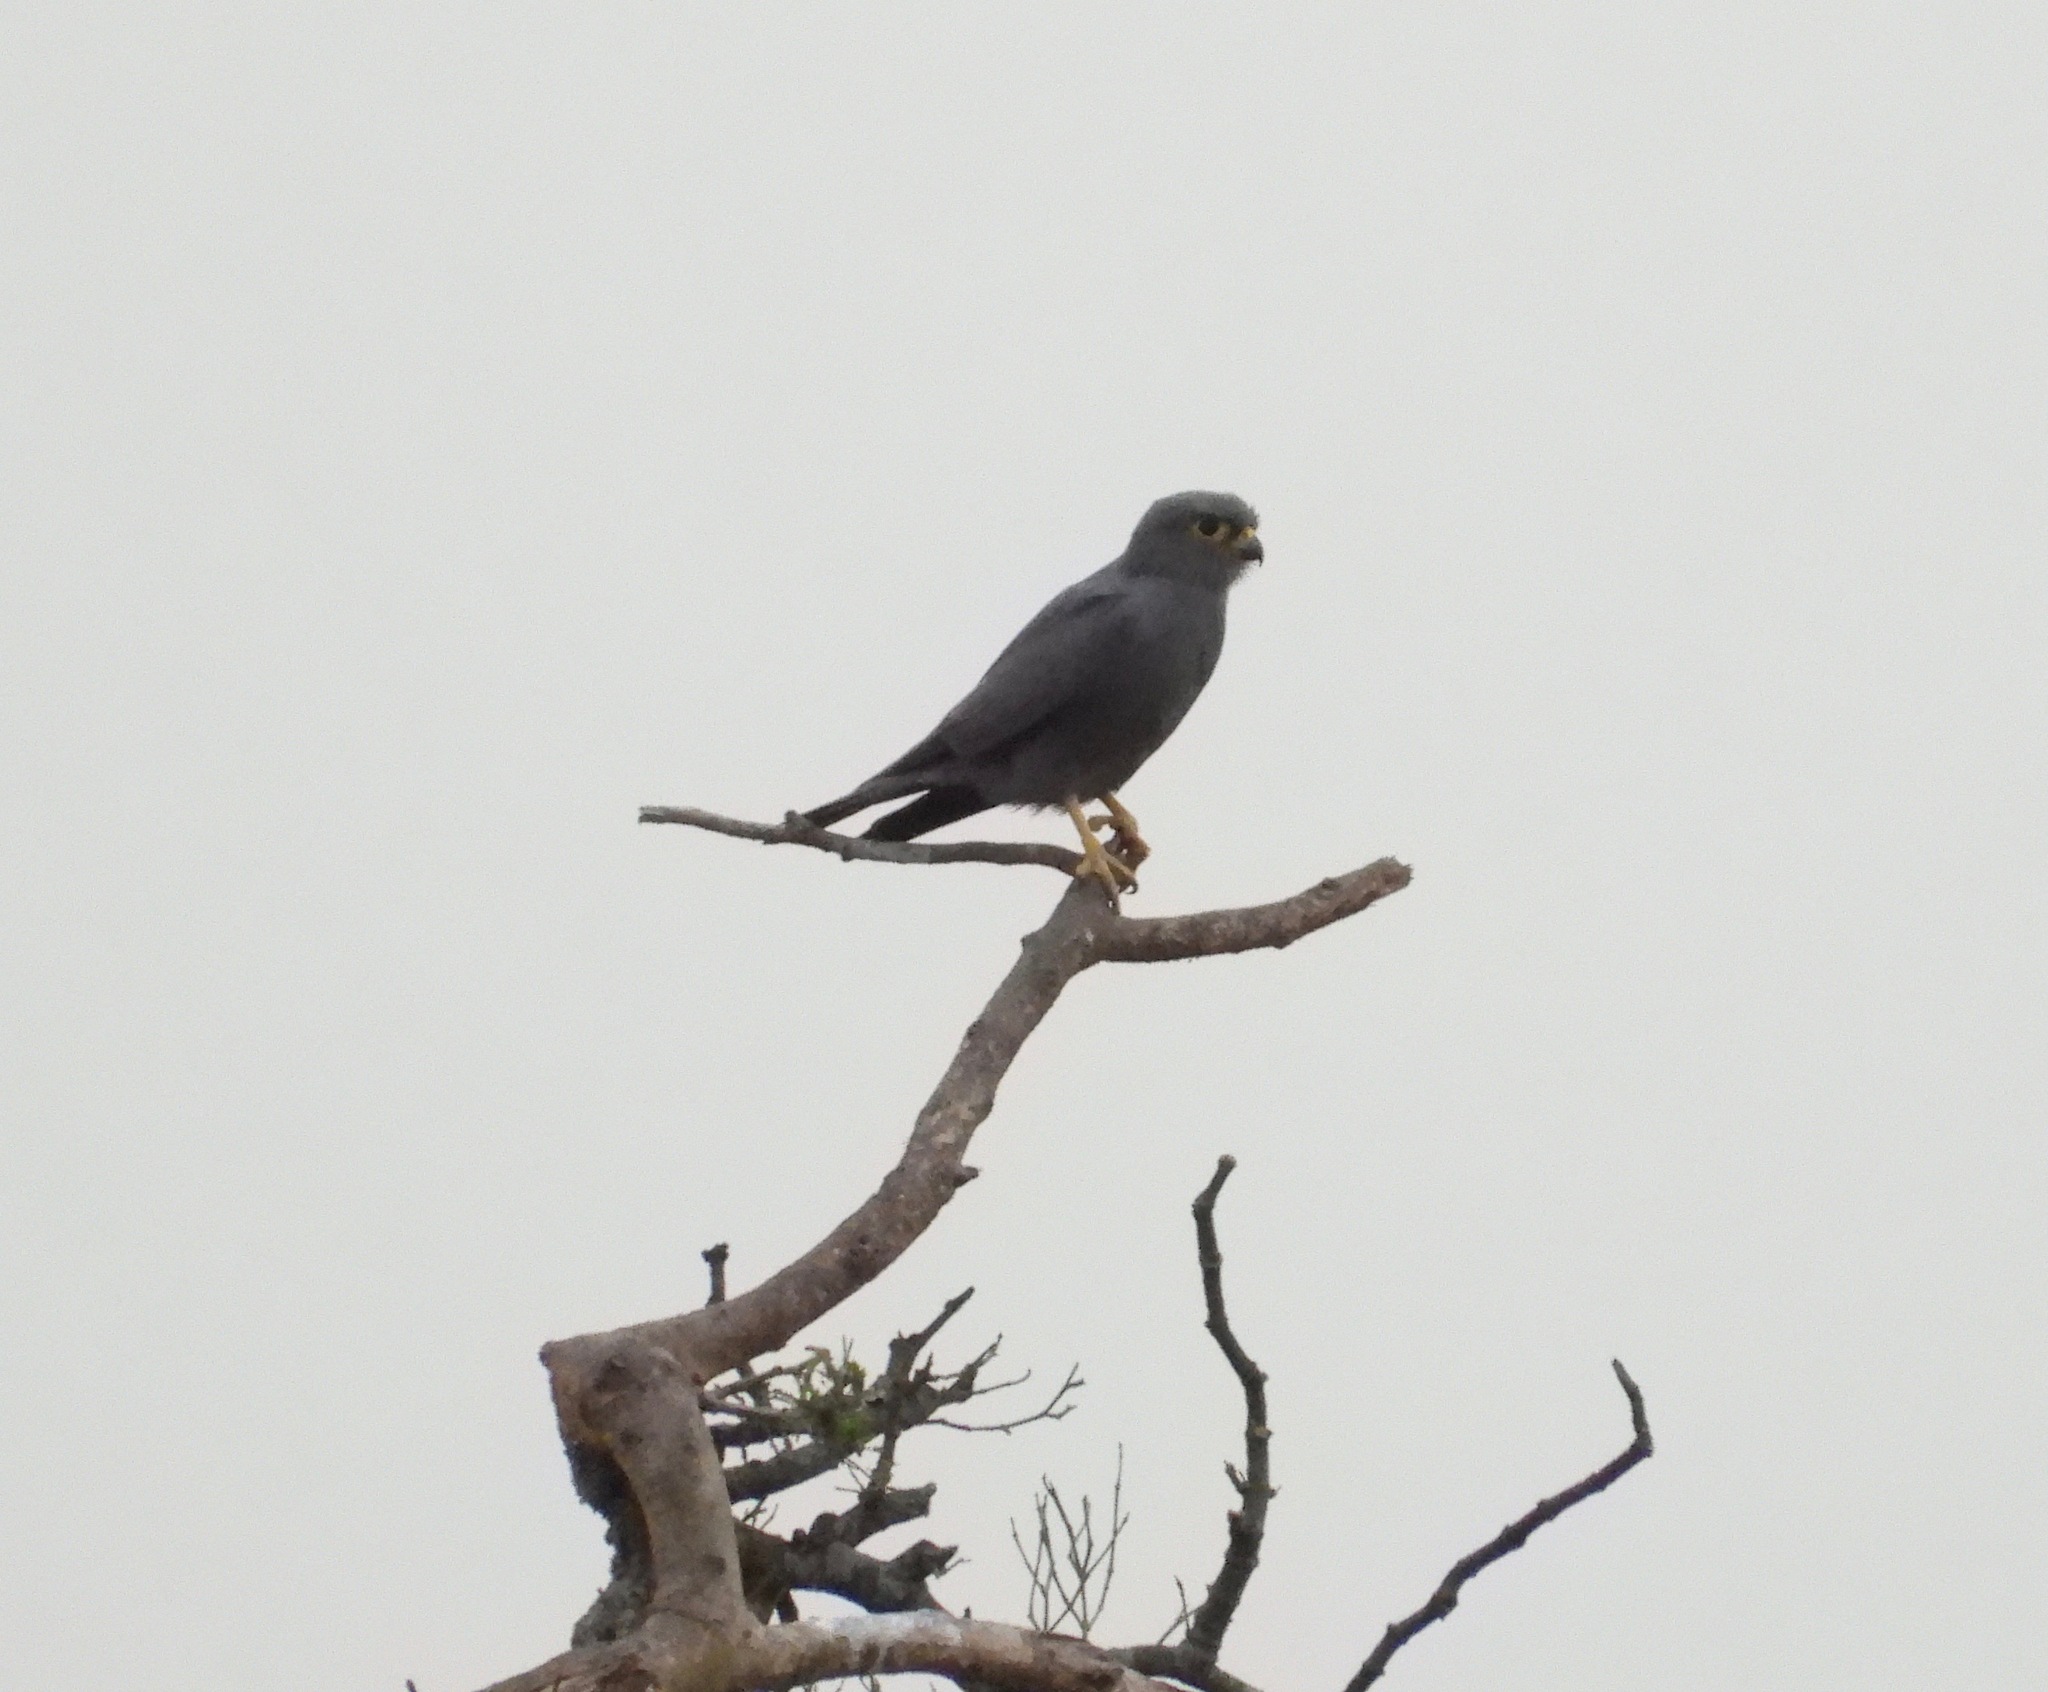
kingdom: Animalia
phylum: Chordata
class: Aves
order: Falconiformes
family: Falconidae
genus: Falco
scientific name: Falco ardosiaceus
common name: Grey kestrel
